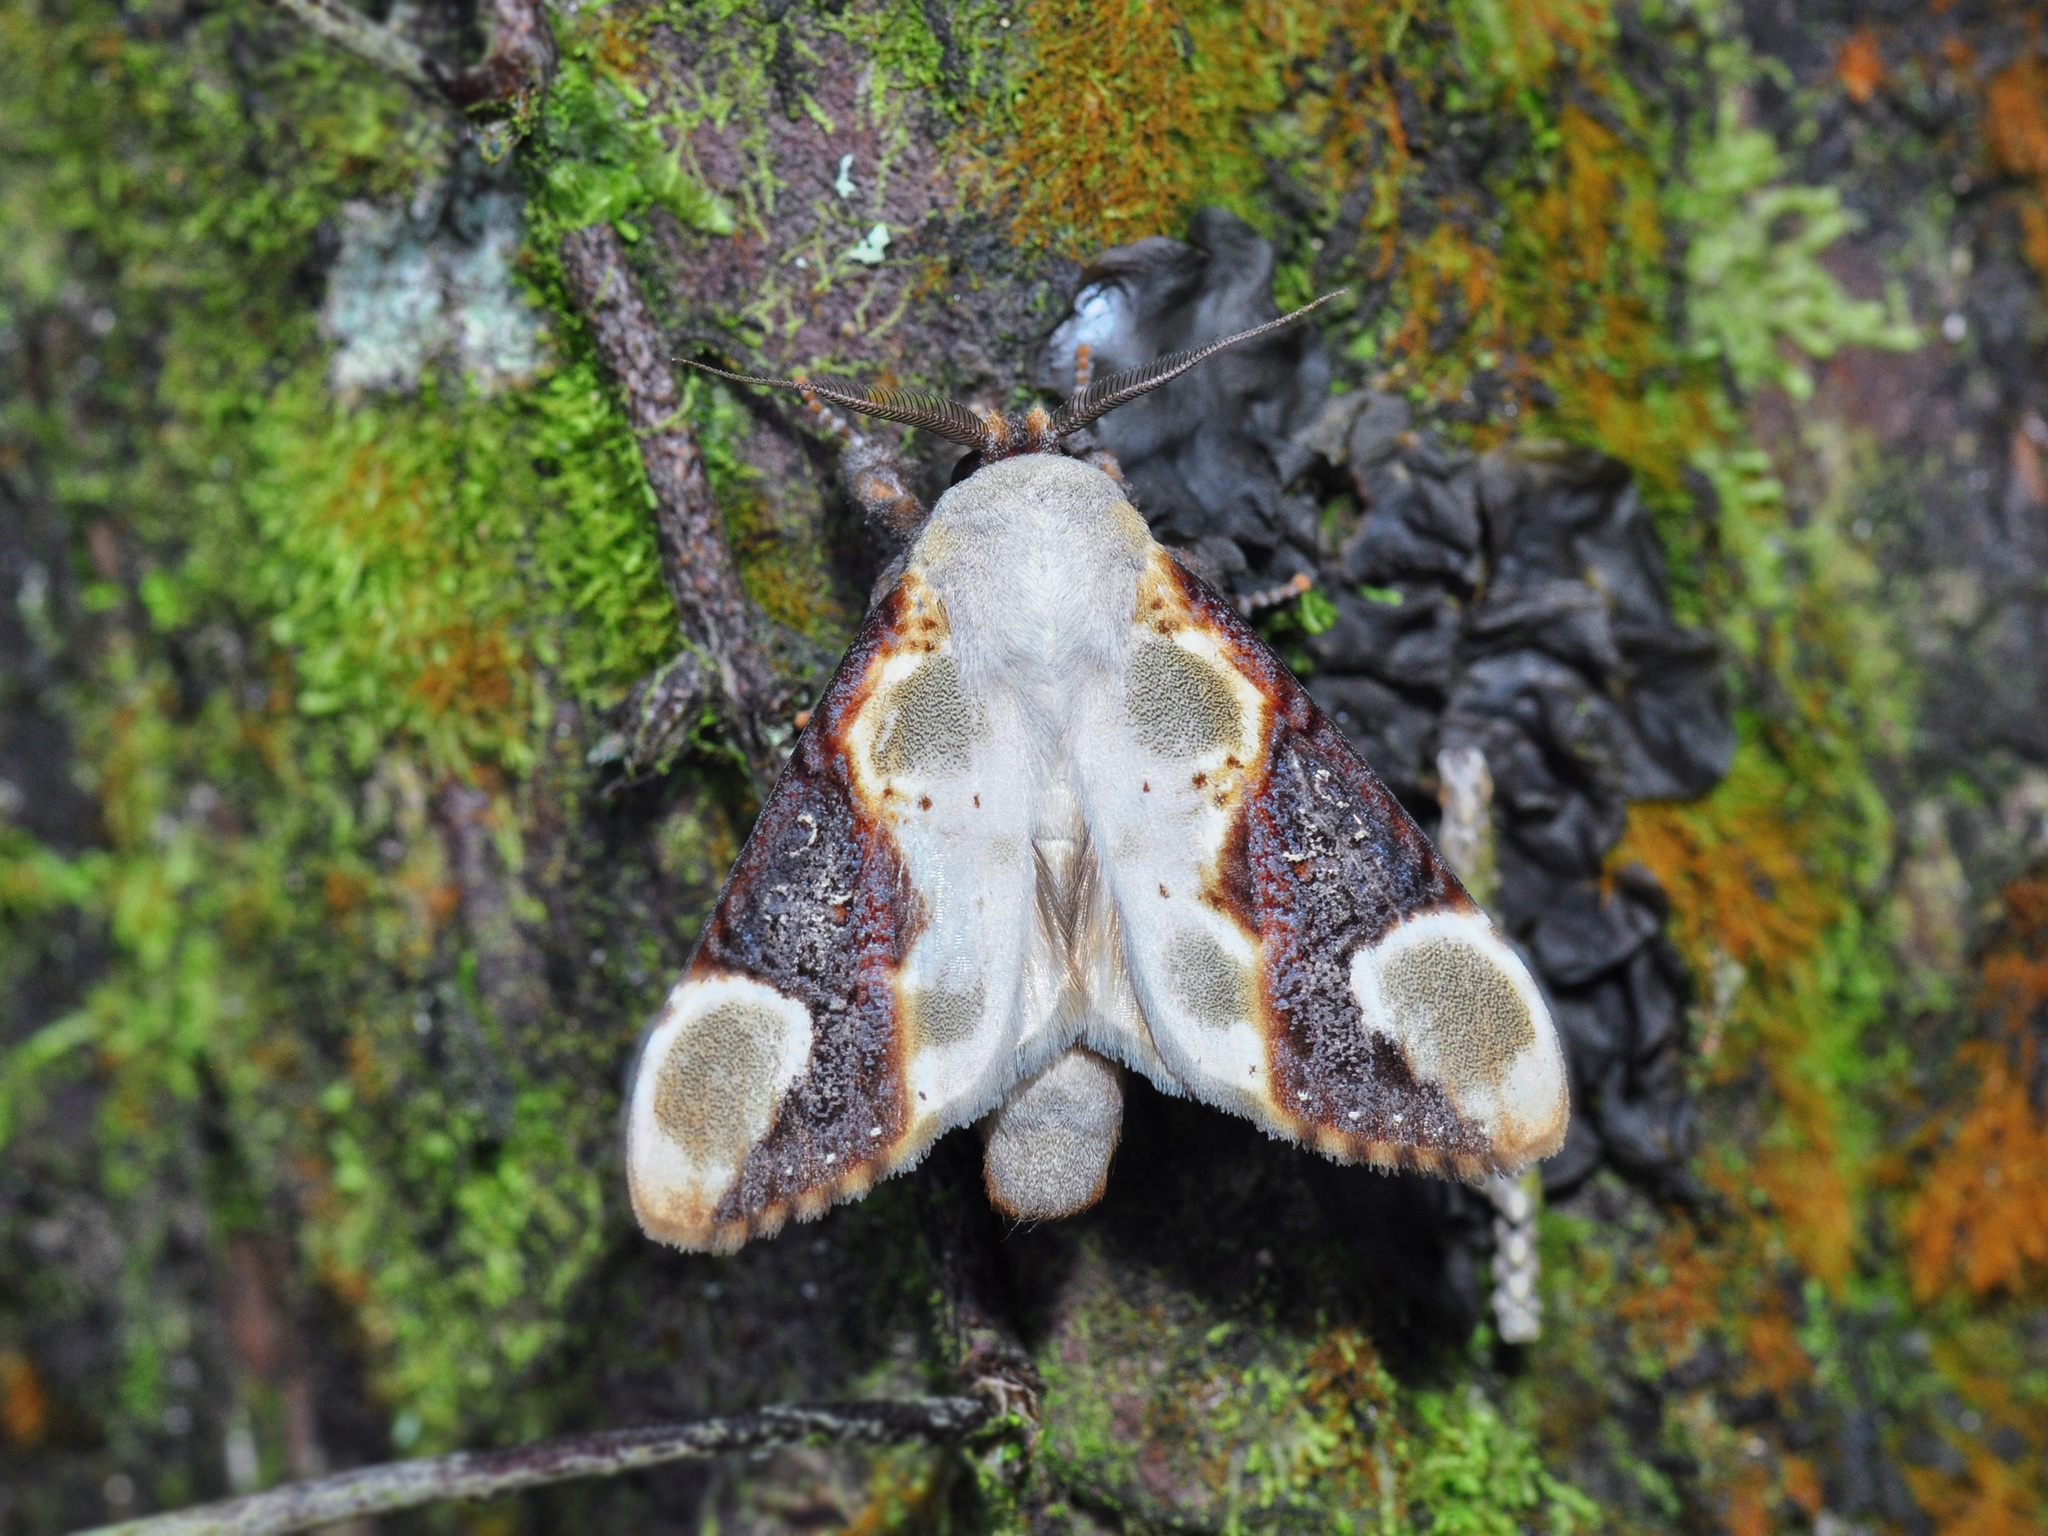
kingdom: Animalia
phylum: Arthropoda
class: Insecta
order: Lepidoptera
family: Notodontidae
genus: Formofentonia
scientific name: Formofentonia orbifer
